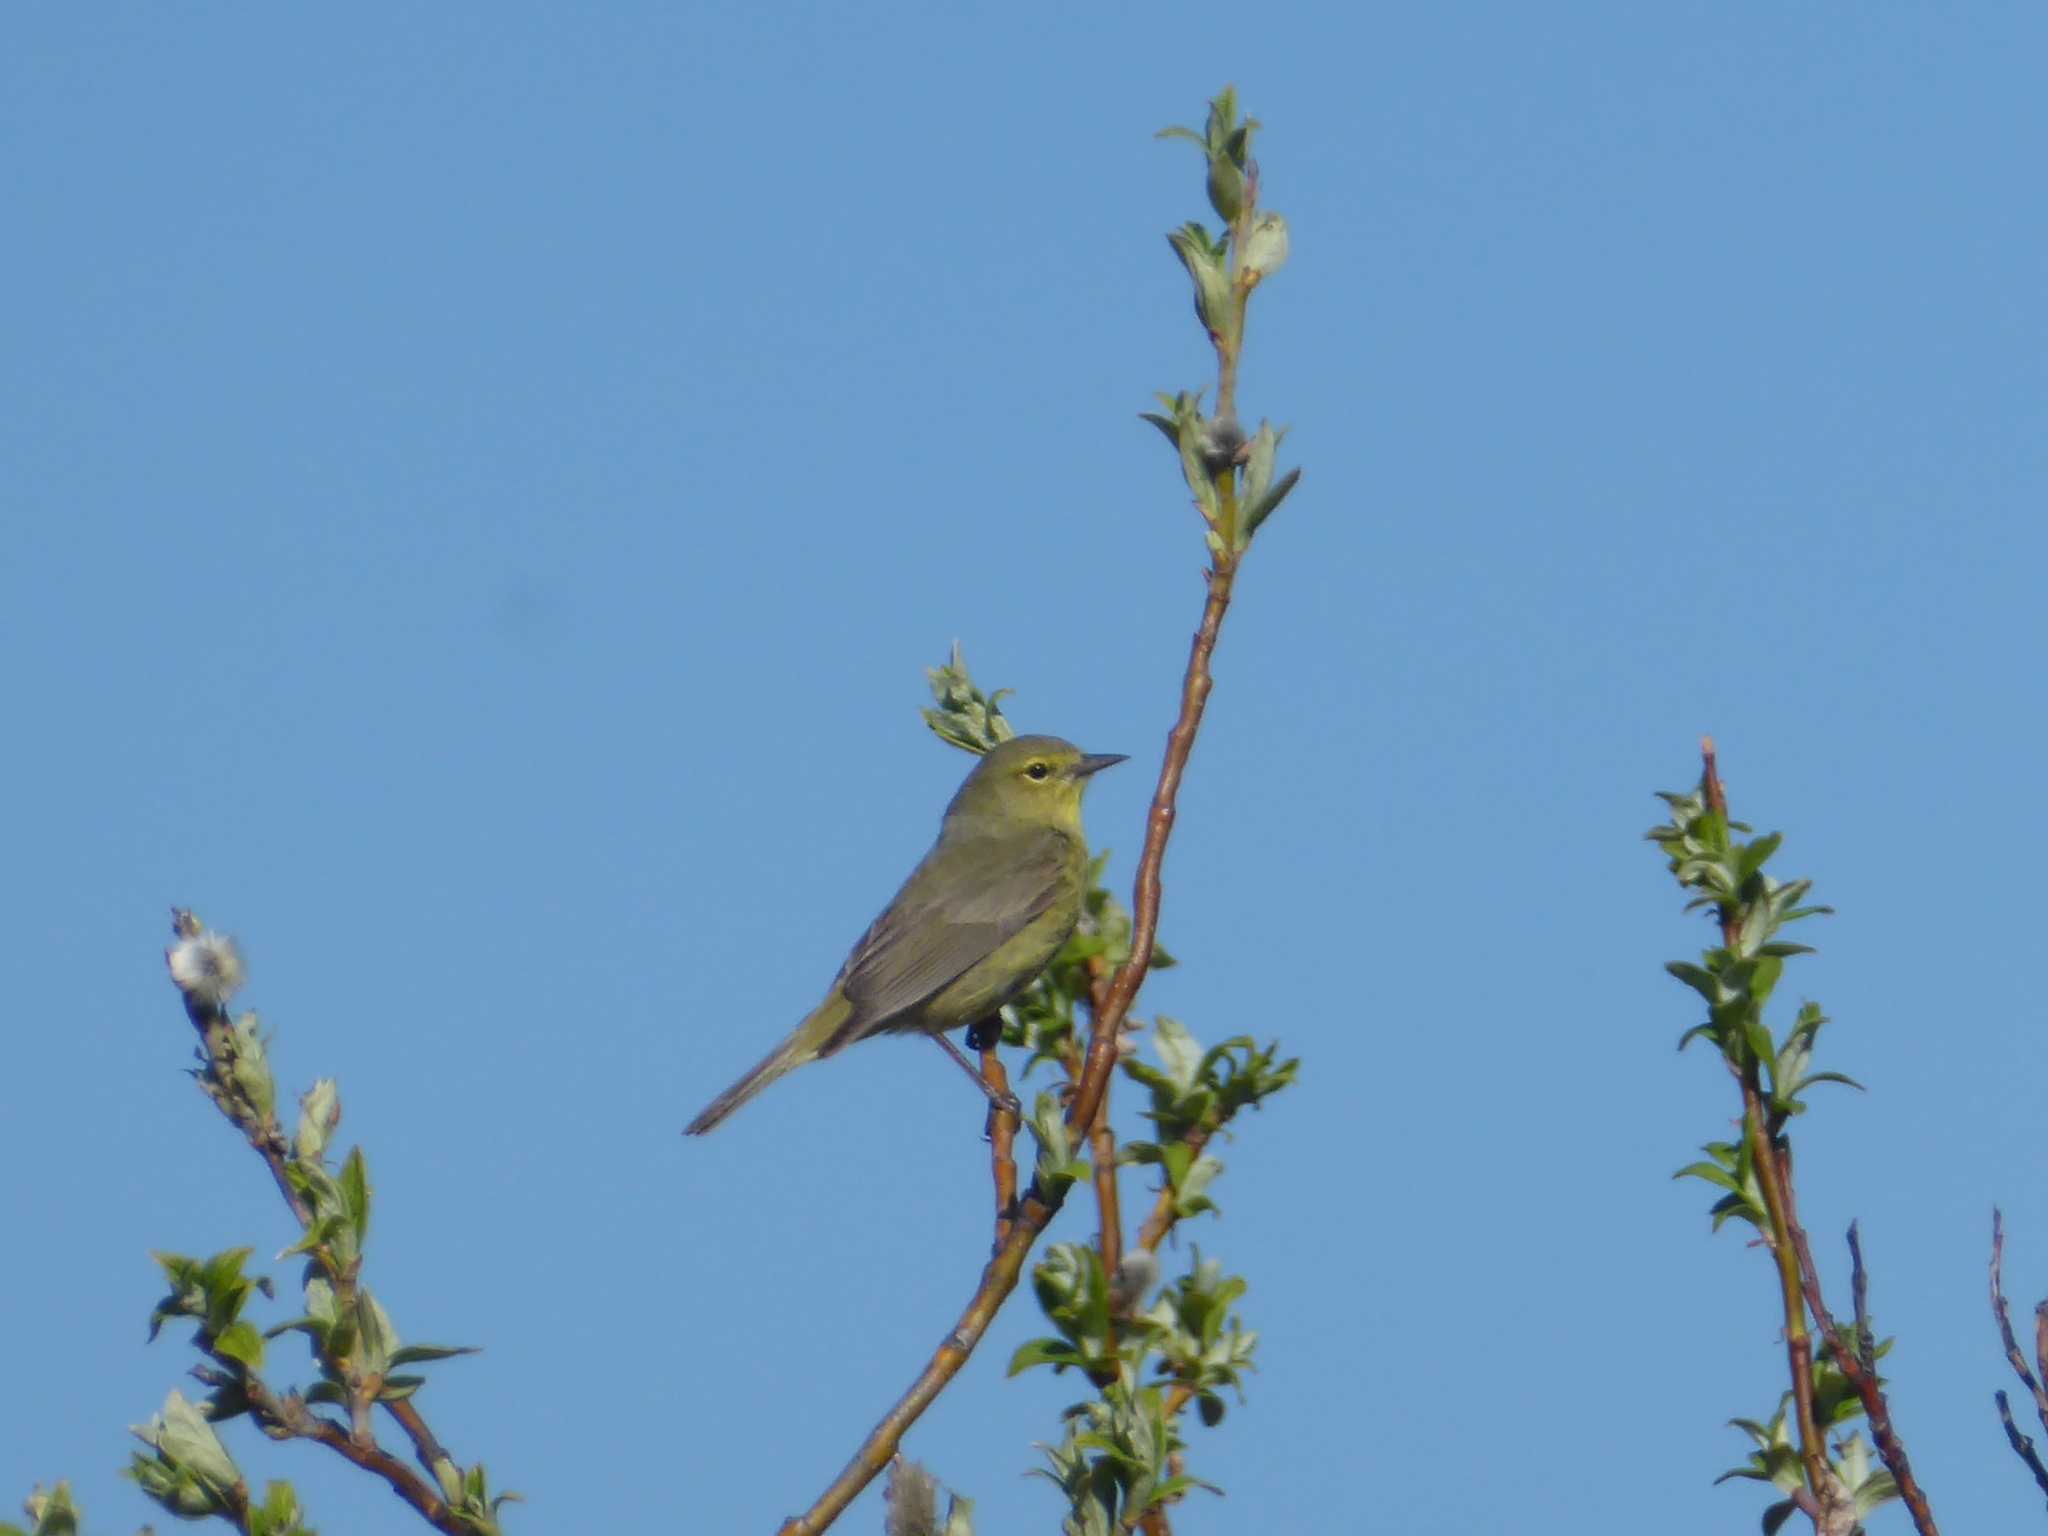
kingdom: Animalia
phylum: Chordata
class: Aves
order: Passeriformes
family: Parulidae
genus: Leiothlypis
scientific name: Leiothlypis celata
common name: Orange-crowned warbler
